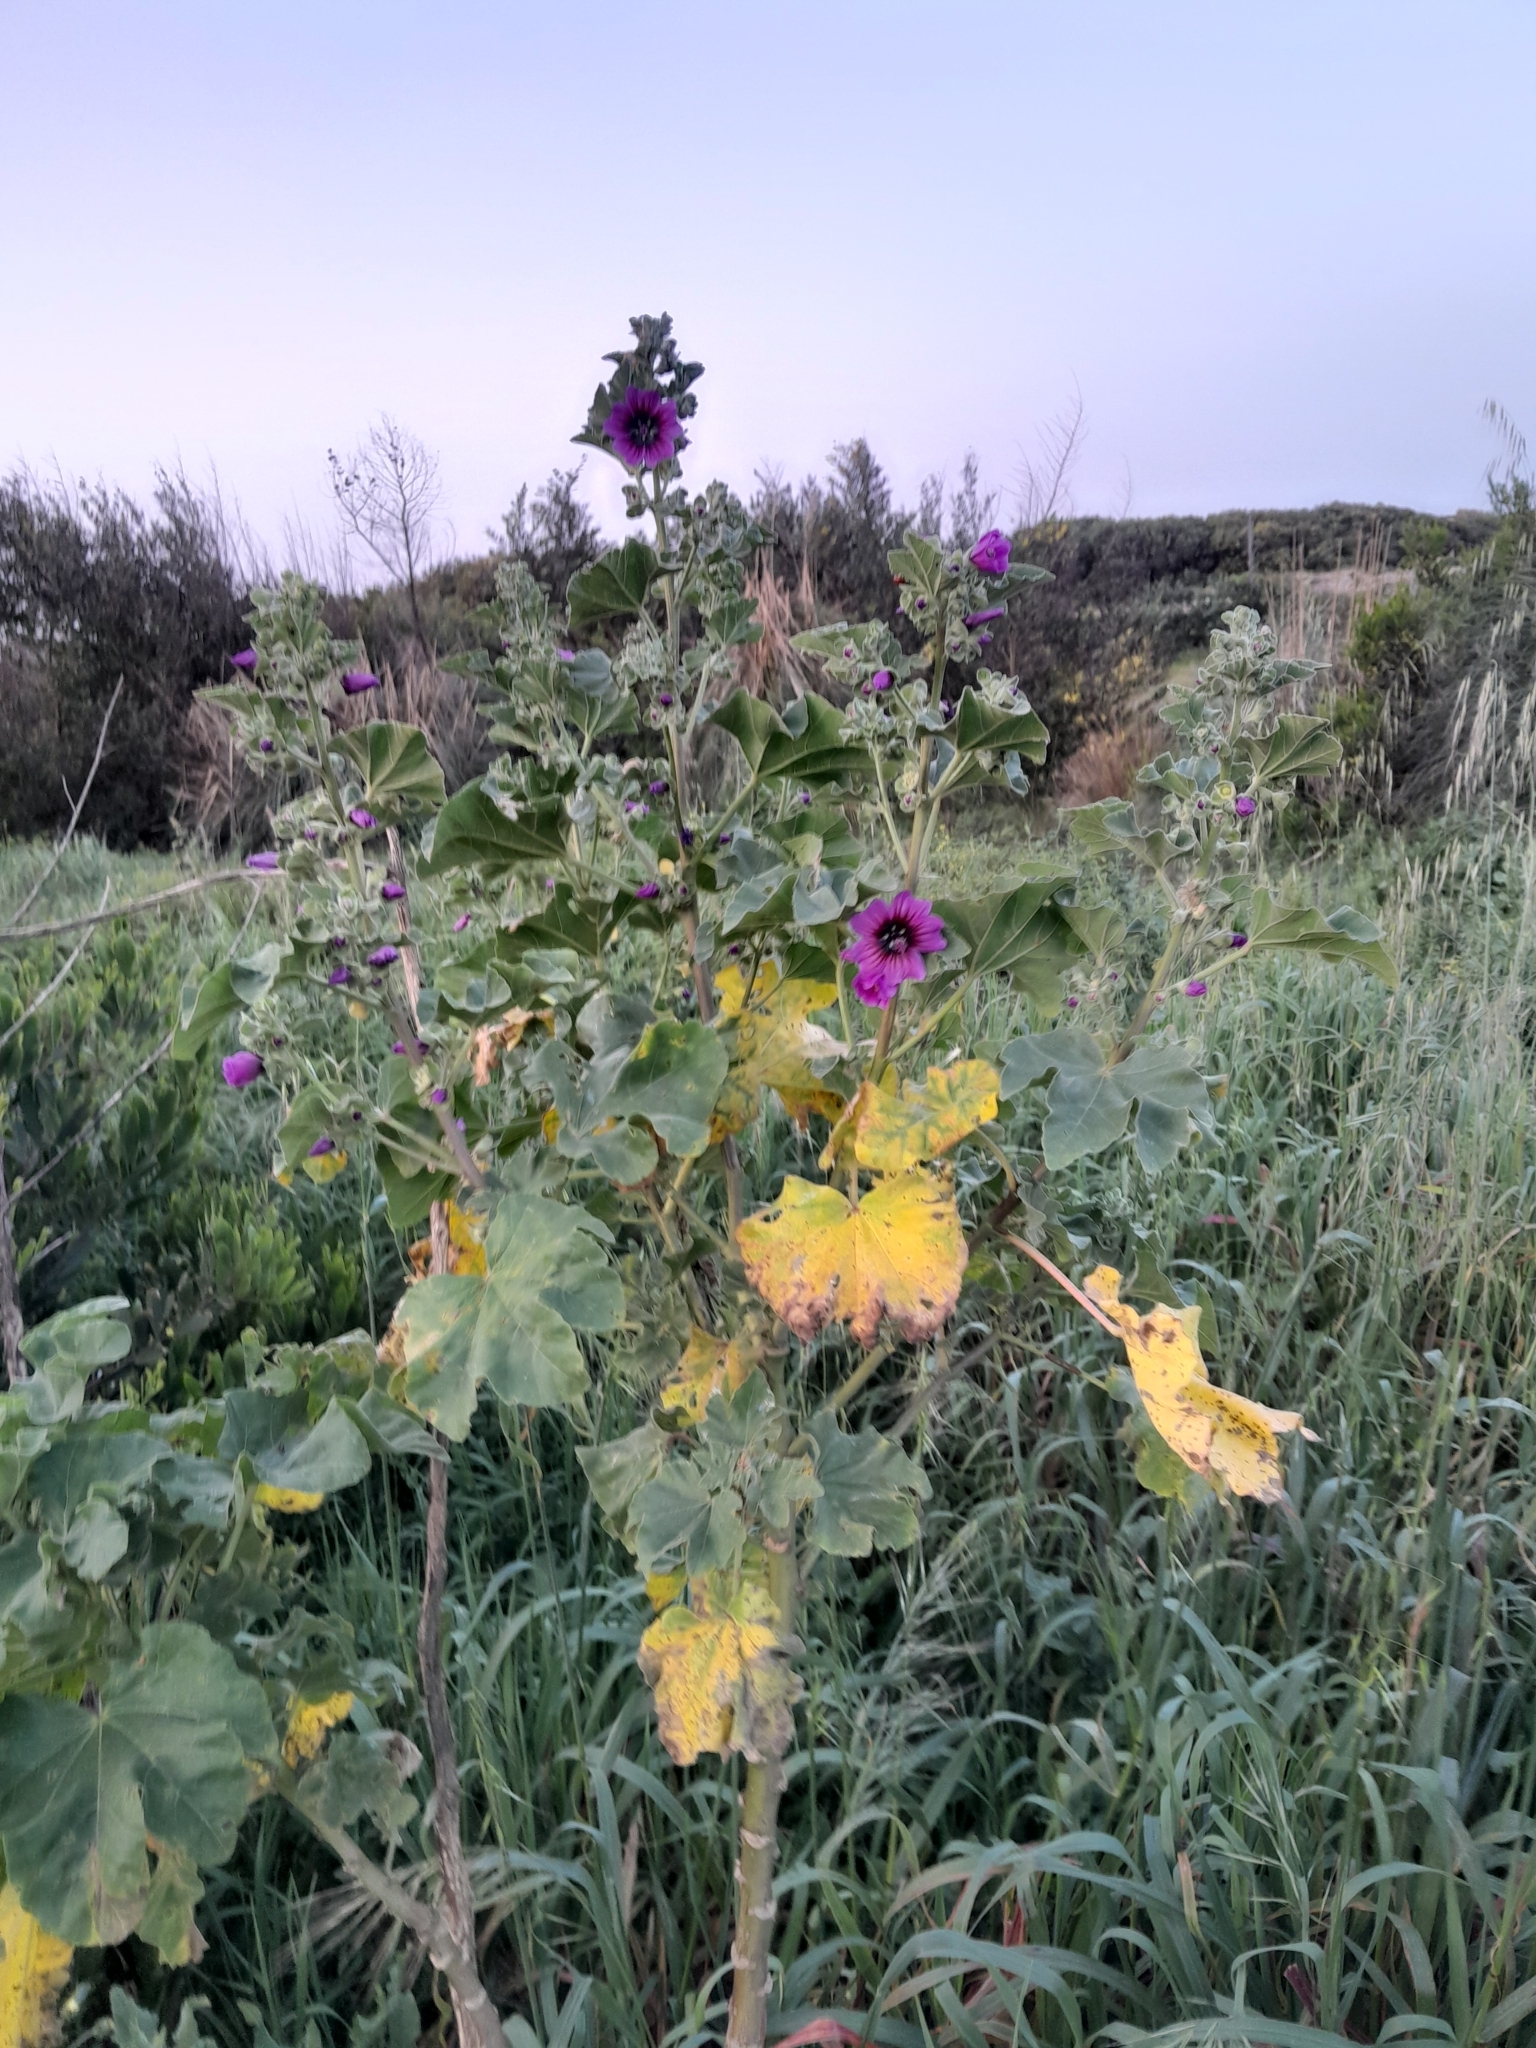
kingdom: Plantae
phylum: Tracheophyta
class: Magnoliopsida
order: Malvales
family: Malvaceae
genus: Malva
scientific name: Malva arborea
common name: Tree mallow
